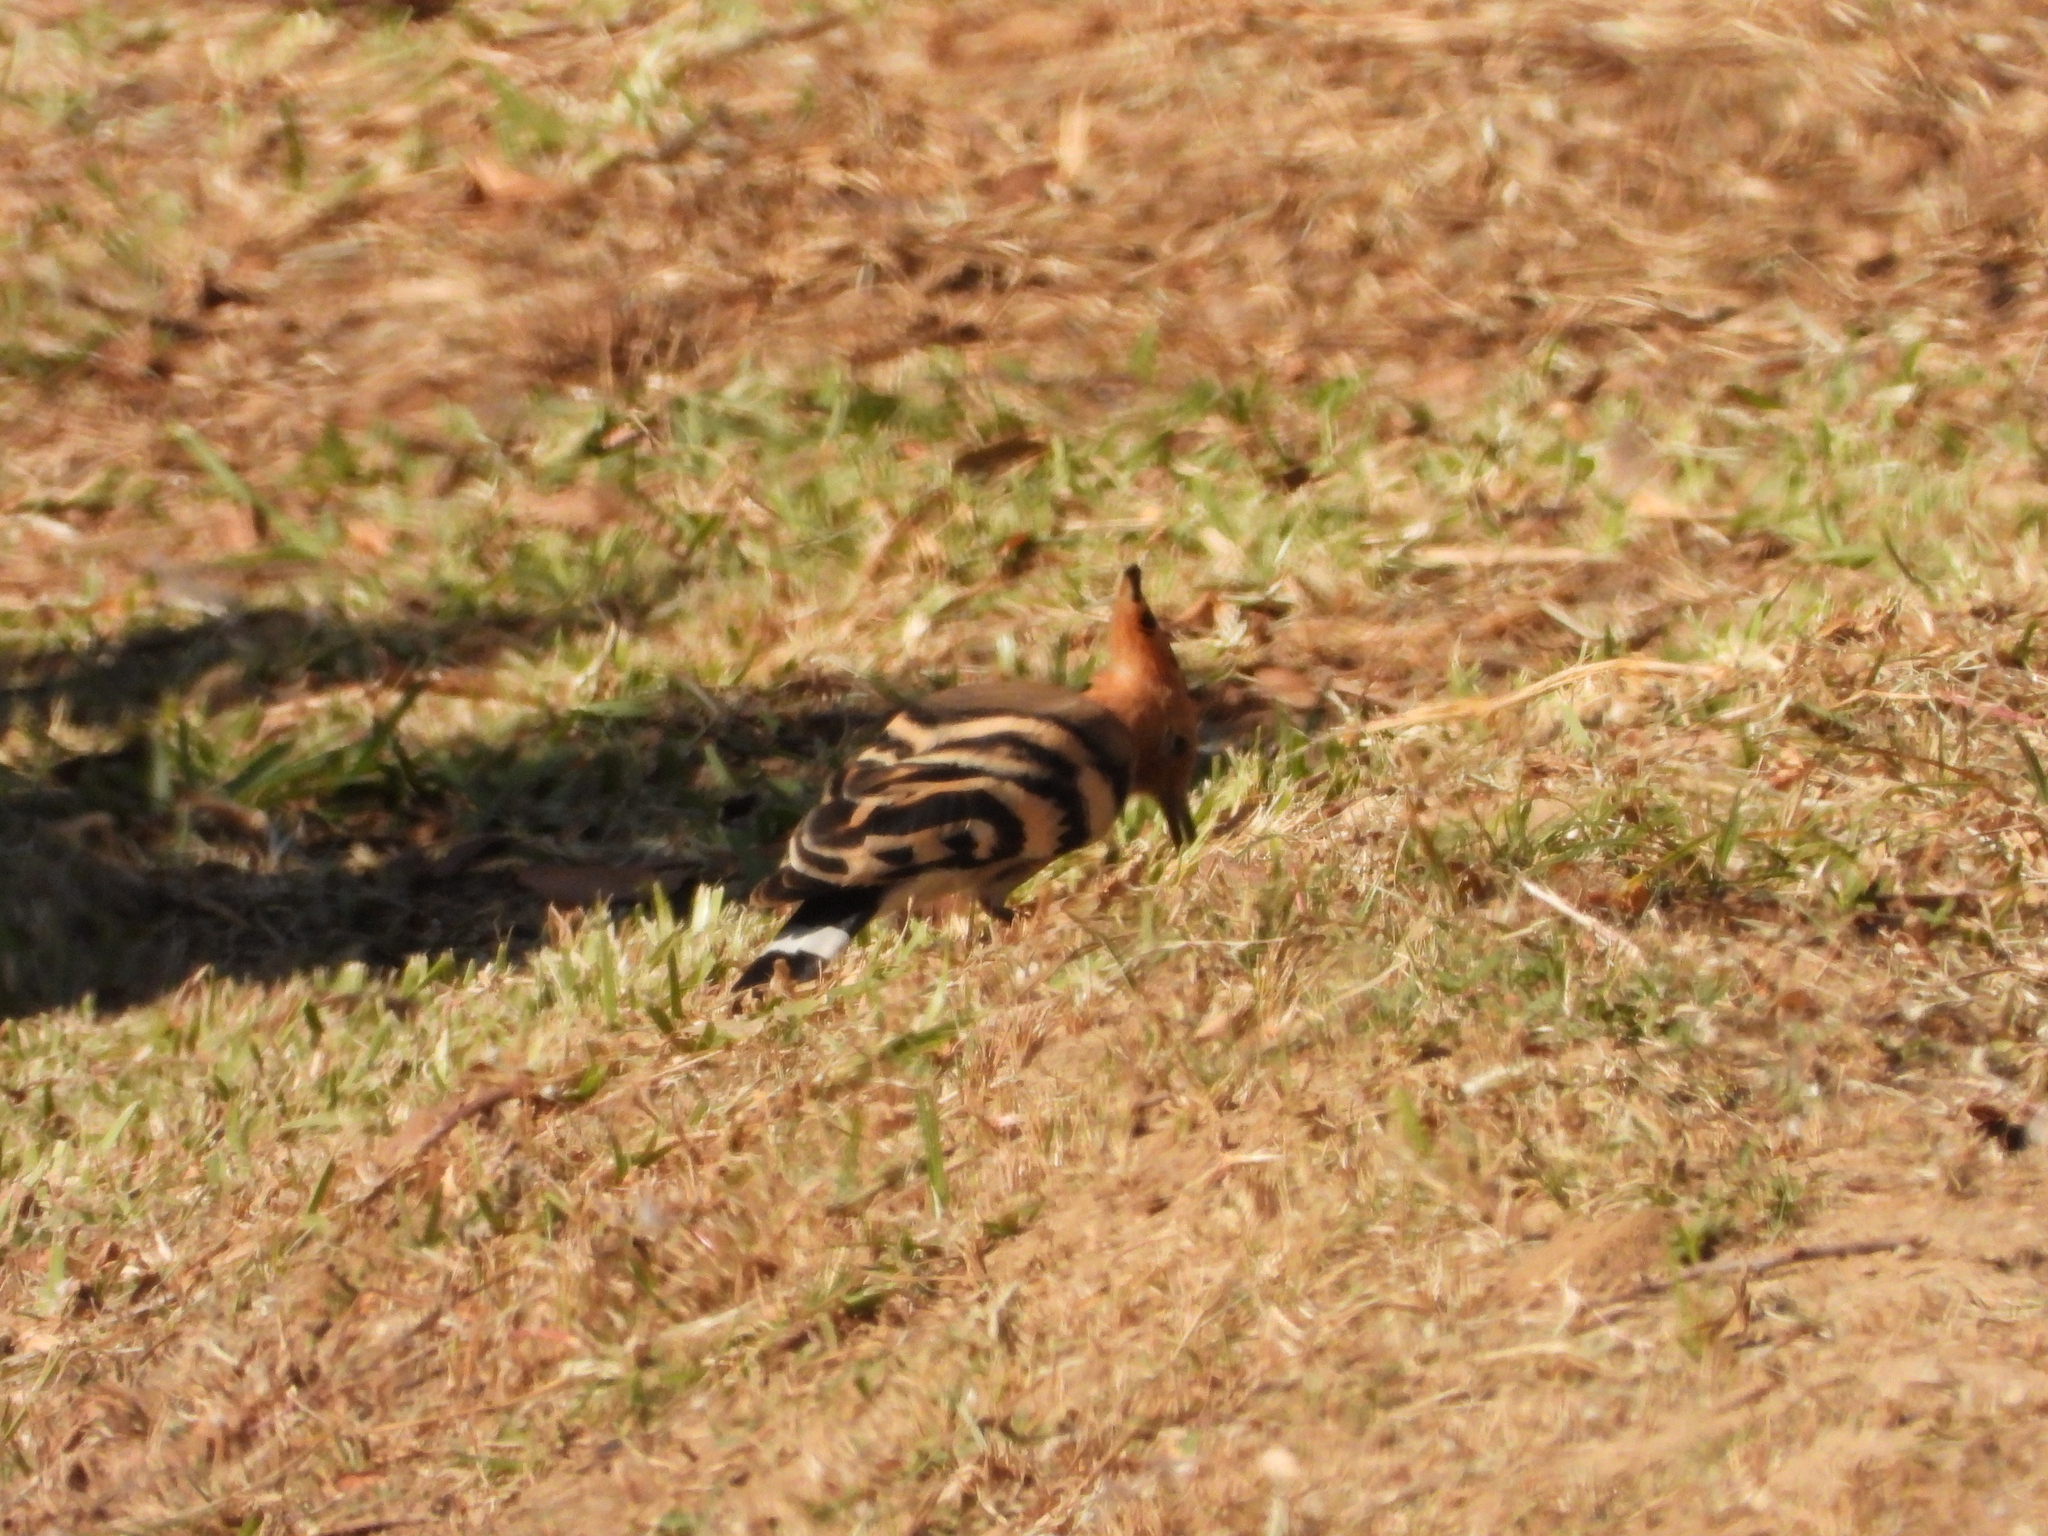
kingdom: Animalia
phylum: Chordata
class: Aves
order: Bucerotiformes
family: Upupidae
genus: Upupa
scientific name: Upupa epops
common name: Eurasian hoopoe
